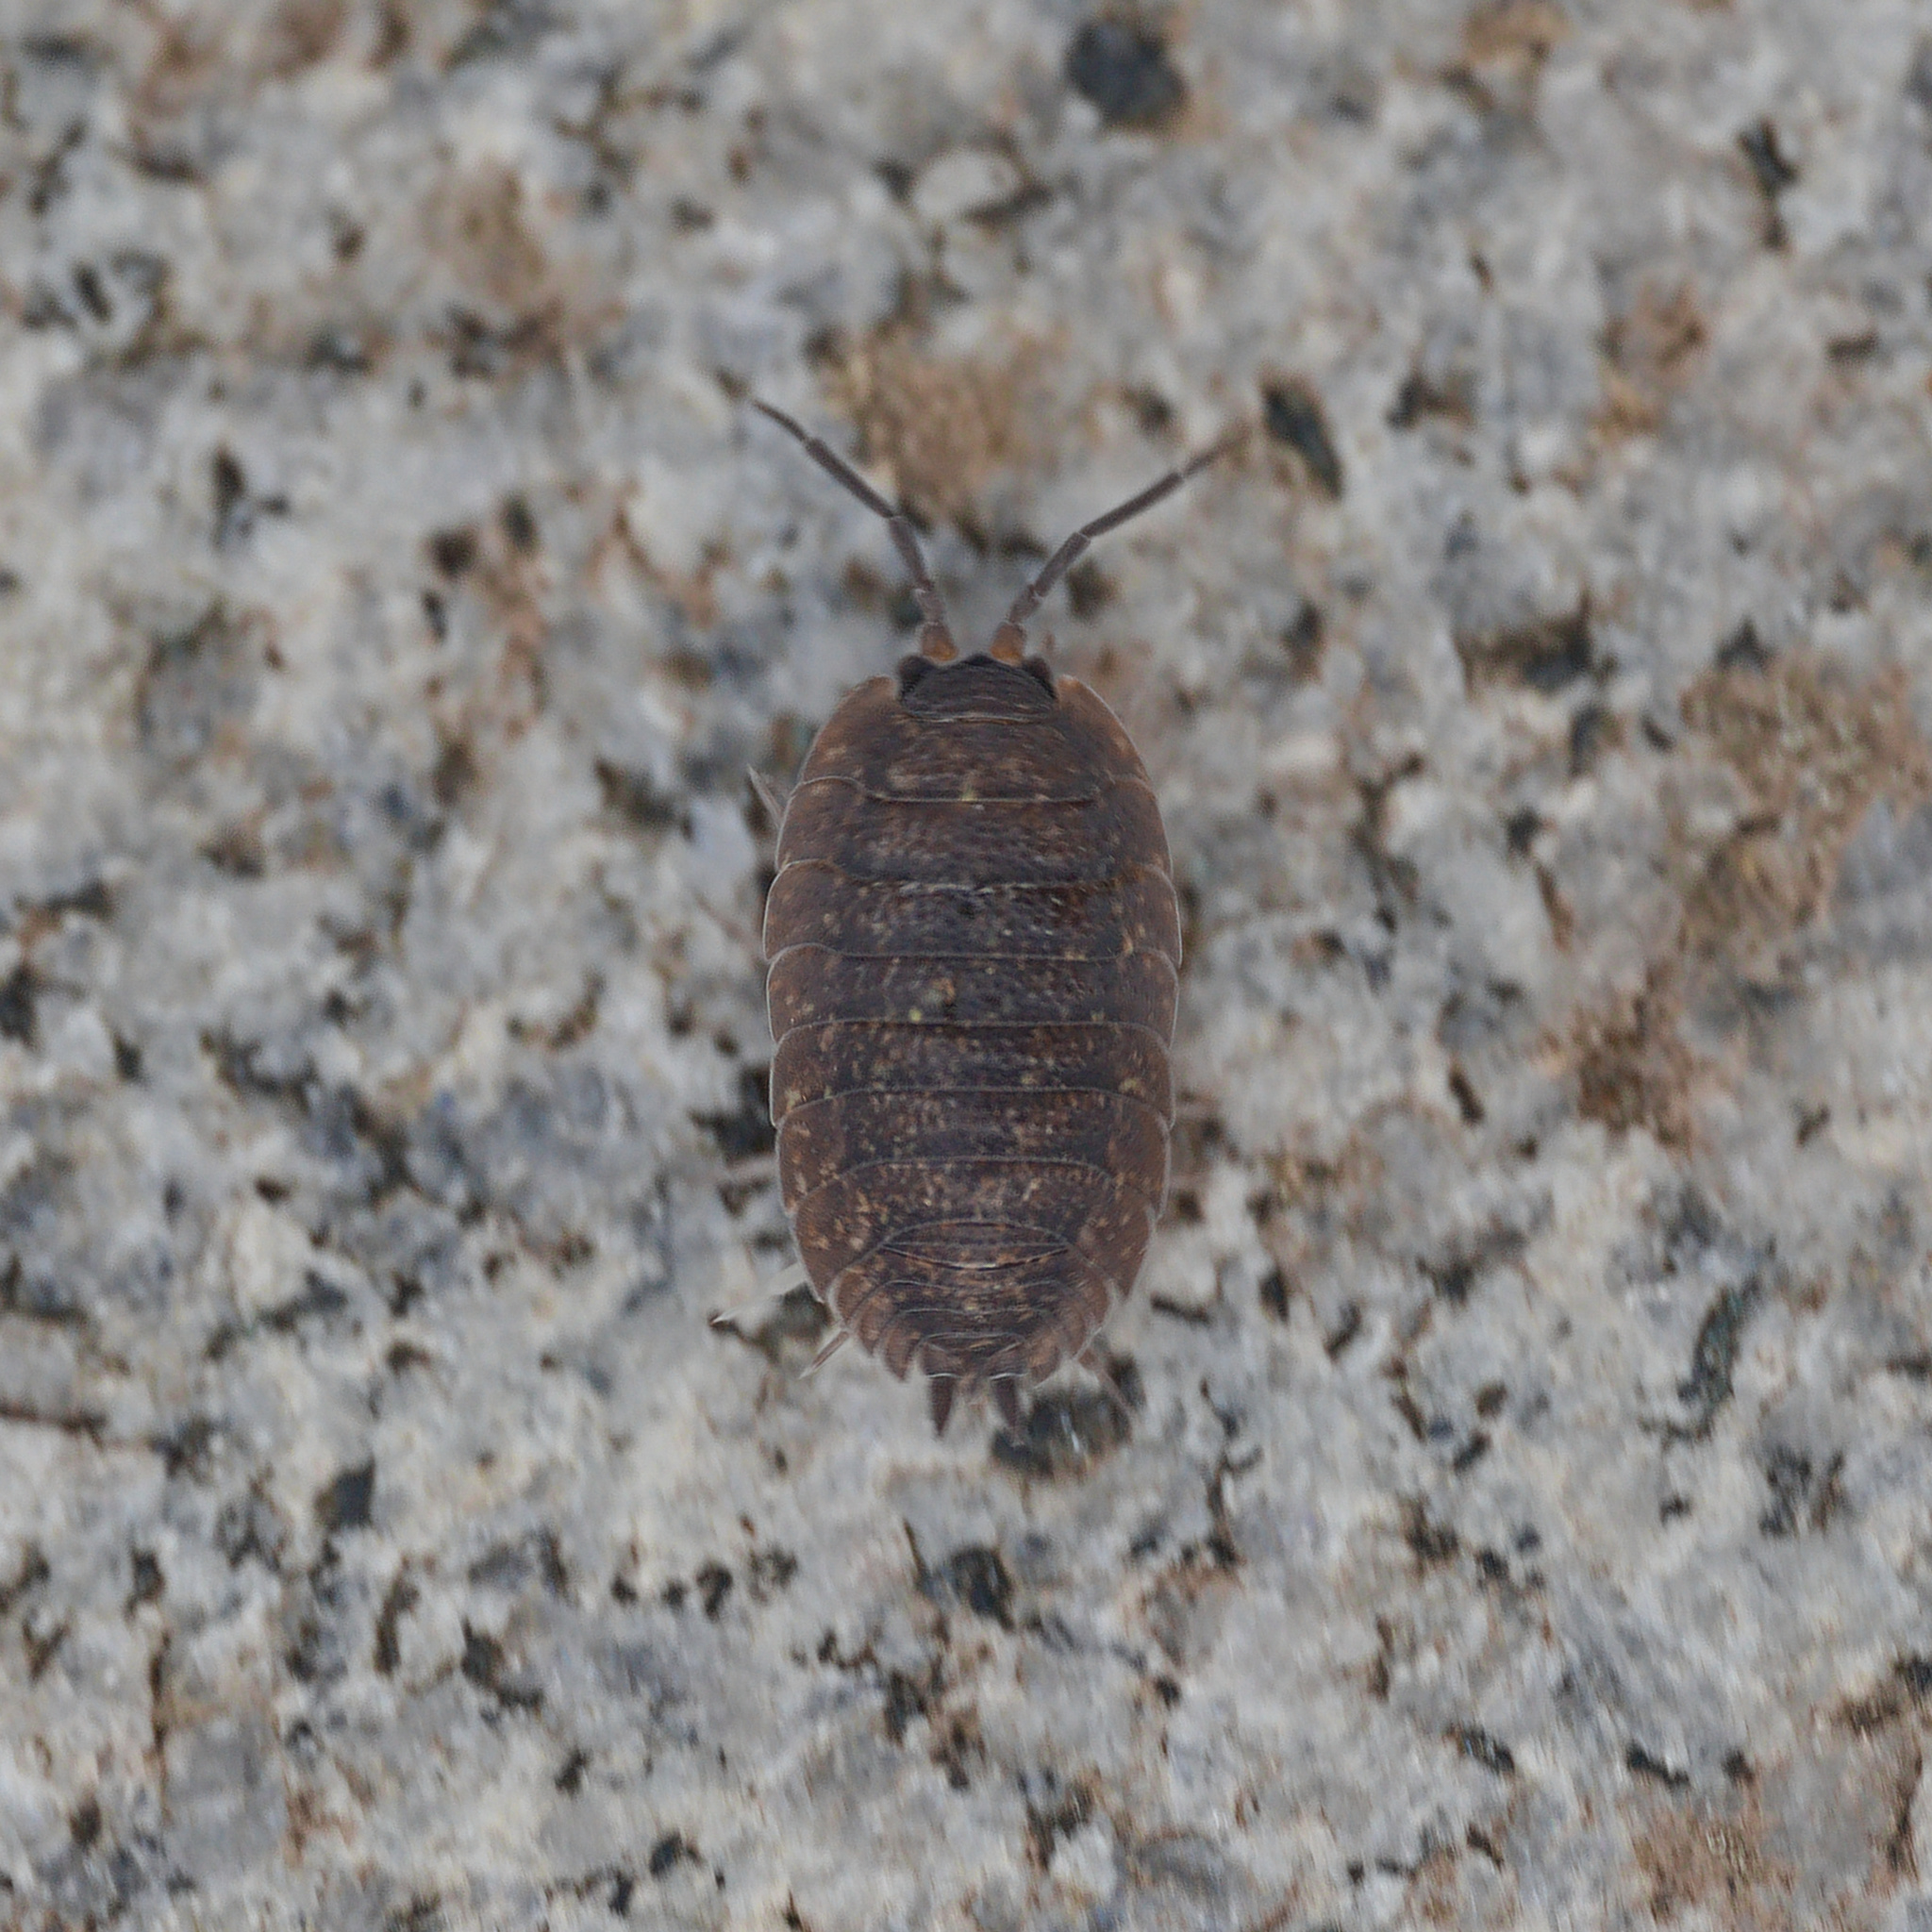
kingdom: Animalia
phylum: Arthropoda
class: Malacostraca
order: Isopoda
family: Porcellionidae
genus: Porcellio
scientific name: Porcellio scaber
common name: Common rough woodlouse
